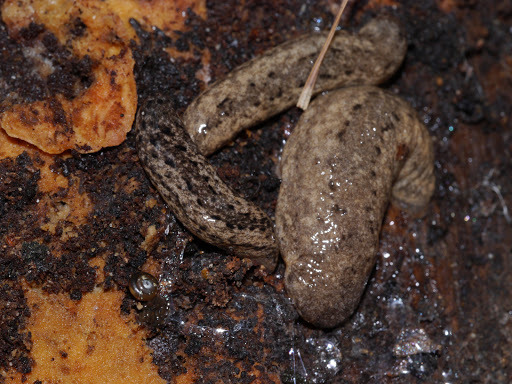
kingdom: Animalia
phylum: Mollusca
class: Gastropoda
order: Stylommatophora
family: Philomycidae
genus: Philomycus
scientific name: Philomycus carolinianus
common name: Carolina mantleslug
